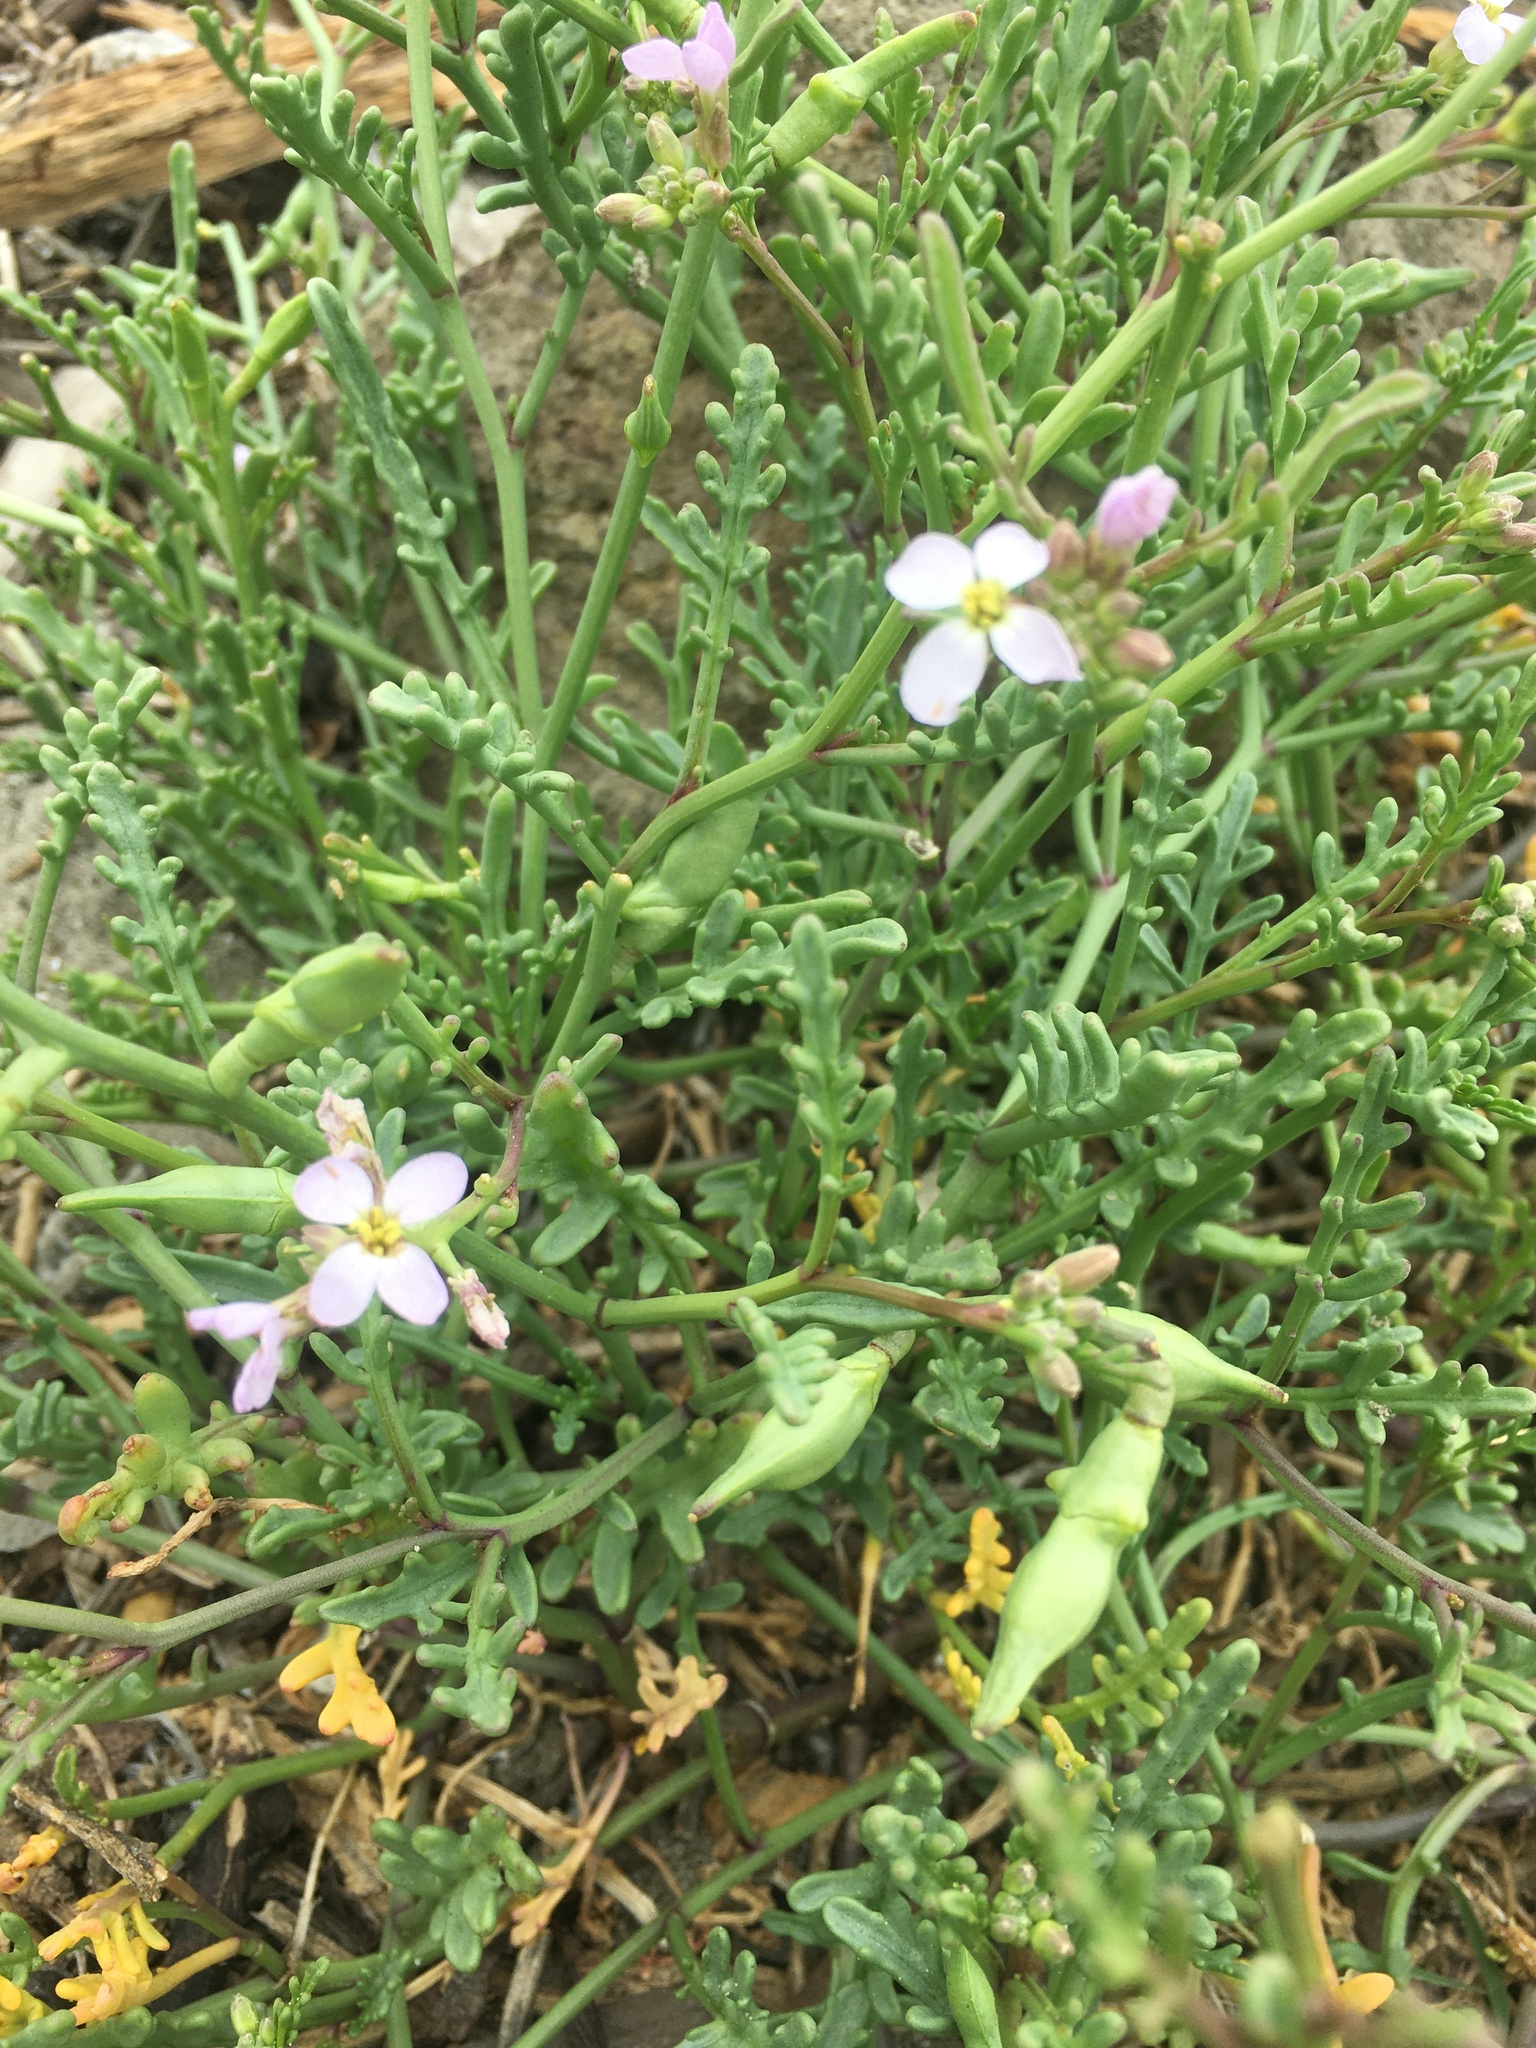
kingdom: Plantae
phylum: Tracheophyta
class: Magnoliopsida
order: Brassicales
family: Brassicaceae
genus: Cakile
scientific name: Cakile maritima
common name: Sea rocket
